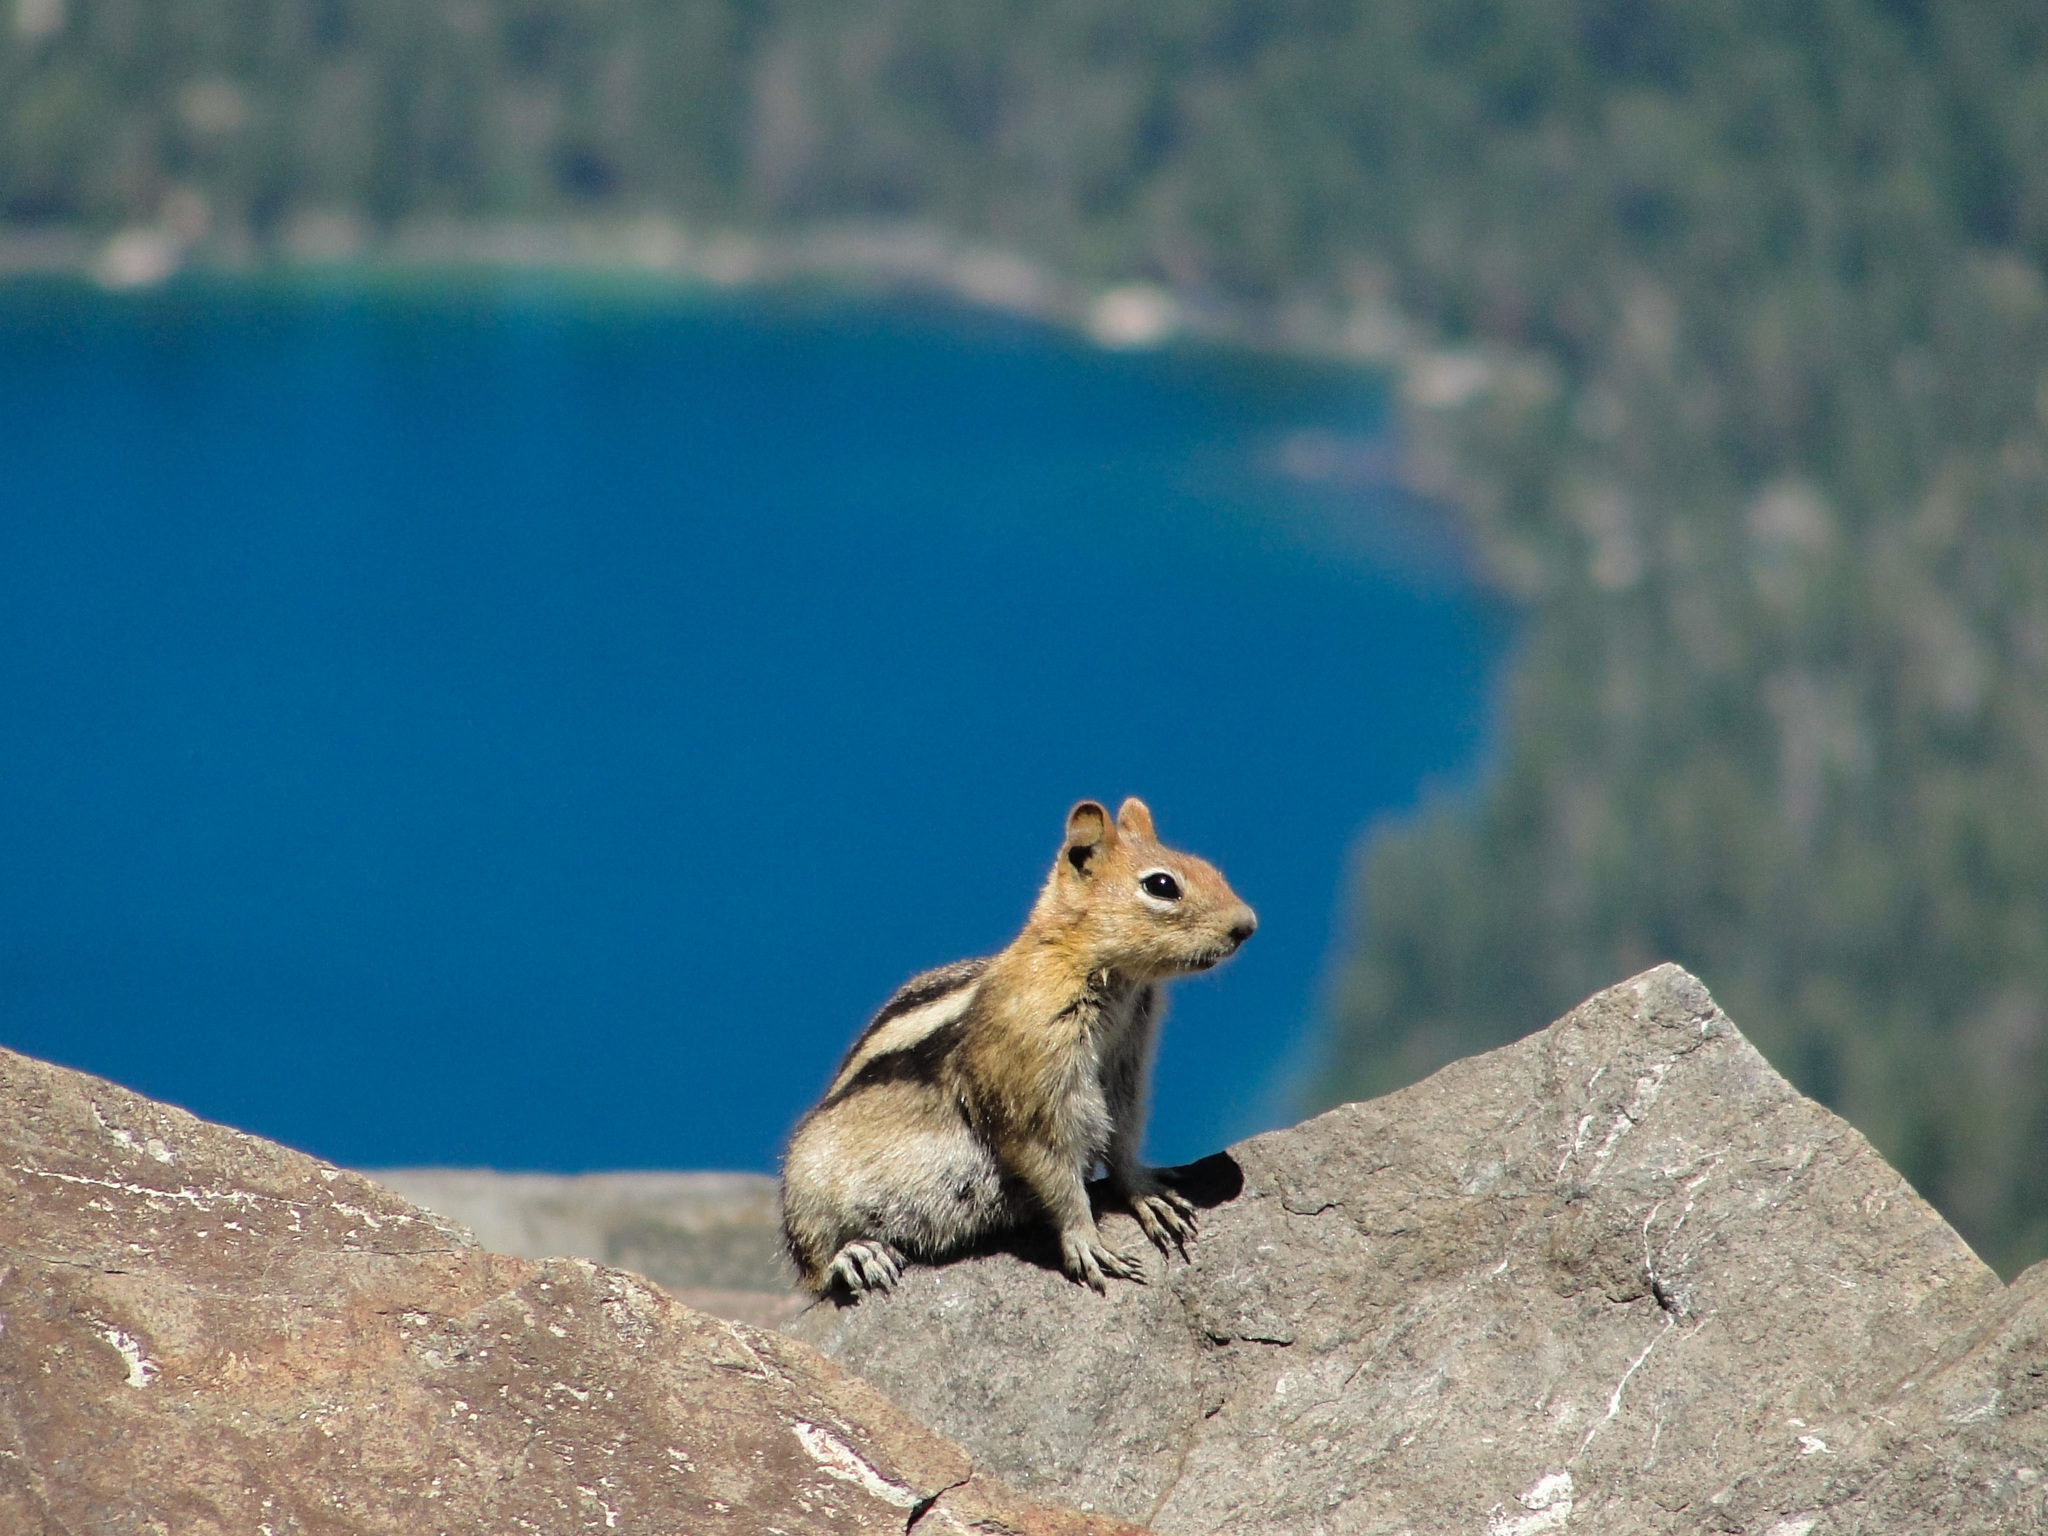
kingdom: Animalia
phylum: Chordata
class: Mammalia
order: Rodentia
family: Sciuridae
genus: Callospermophilus
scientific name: Callospermophilus lateralis
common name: Golden-mantled ground squirrel
